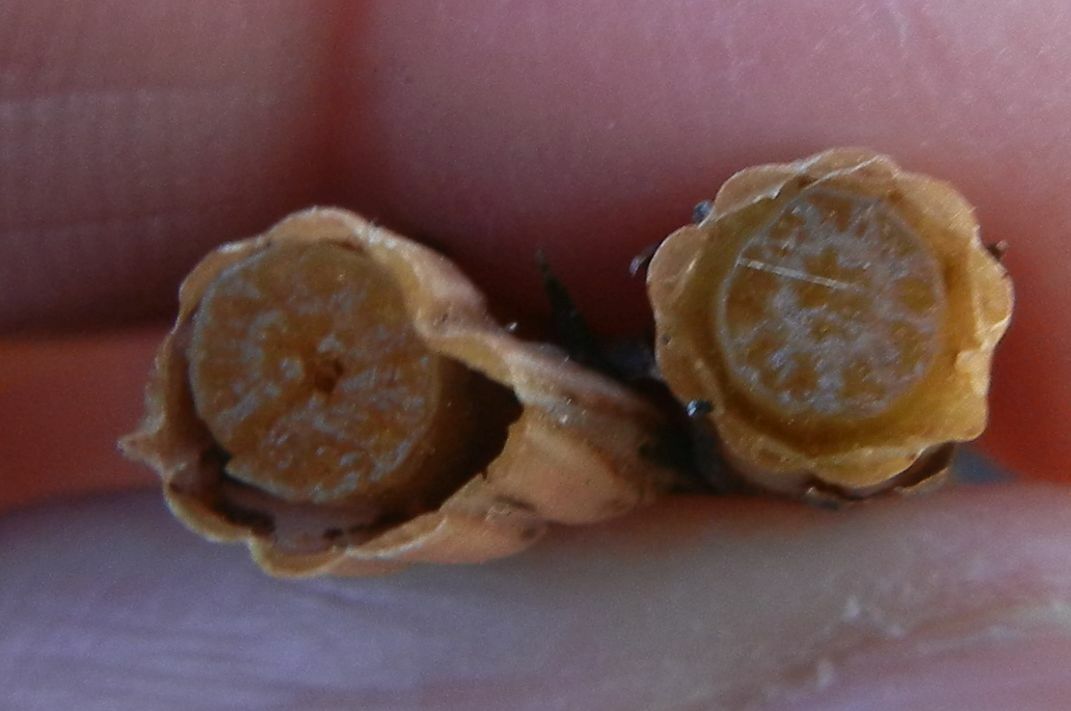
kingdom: Plantae
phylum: Tracheophyta
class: Polypodiopsida
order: Equisetales
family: Equisetaceae
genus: Equisetum
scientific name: Equisetum arvense
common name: Field horsetail
